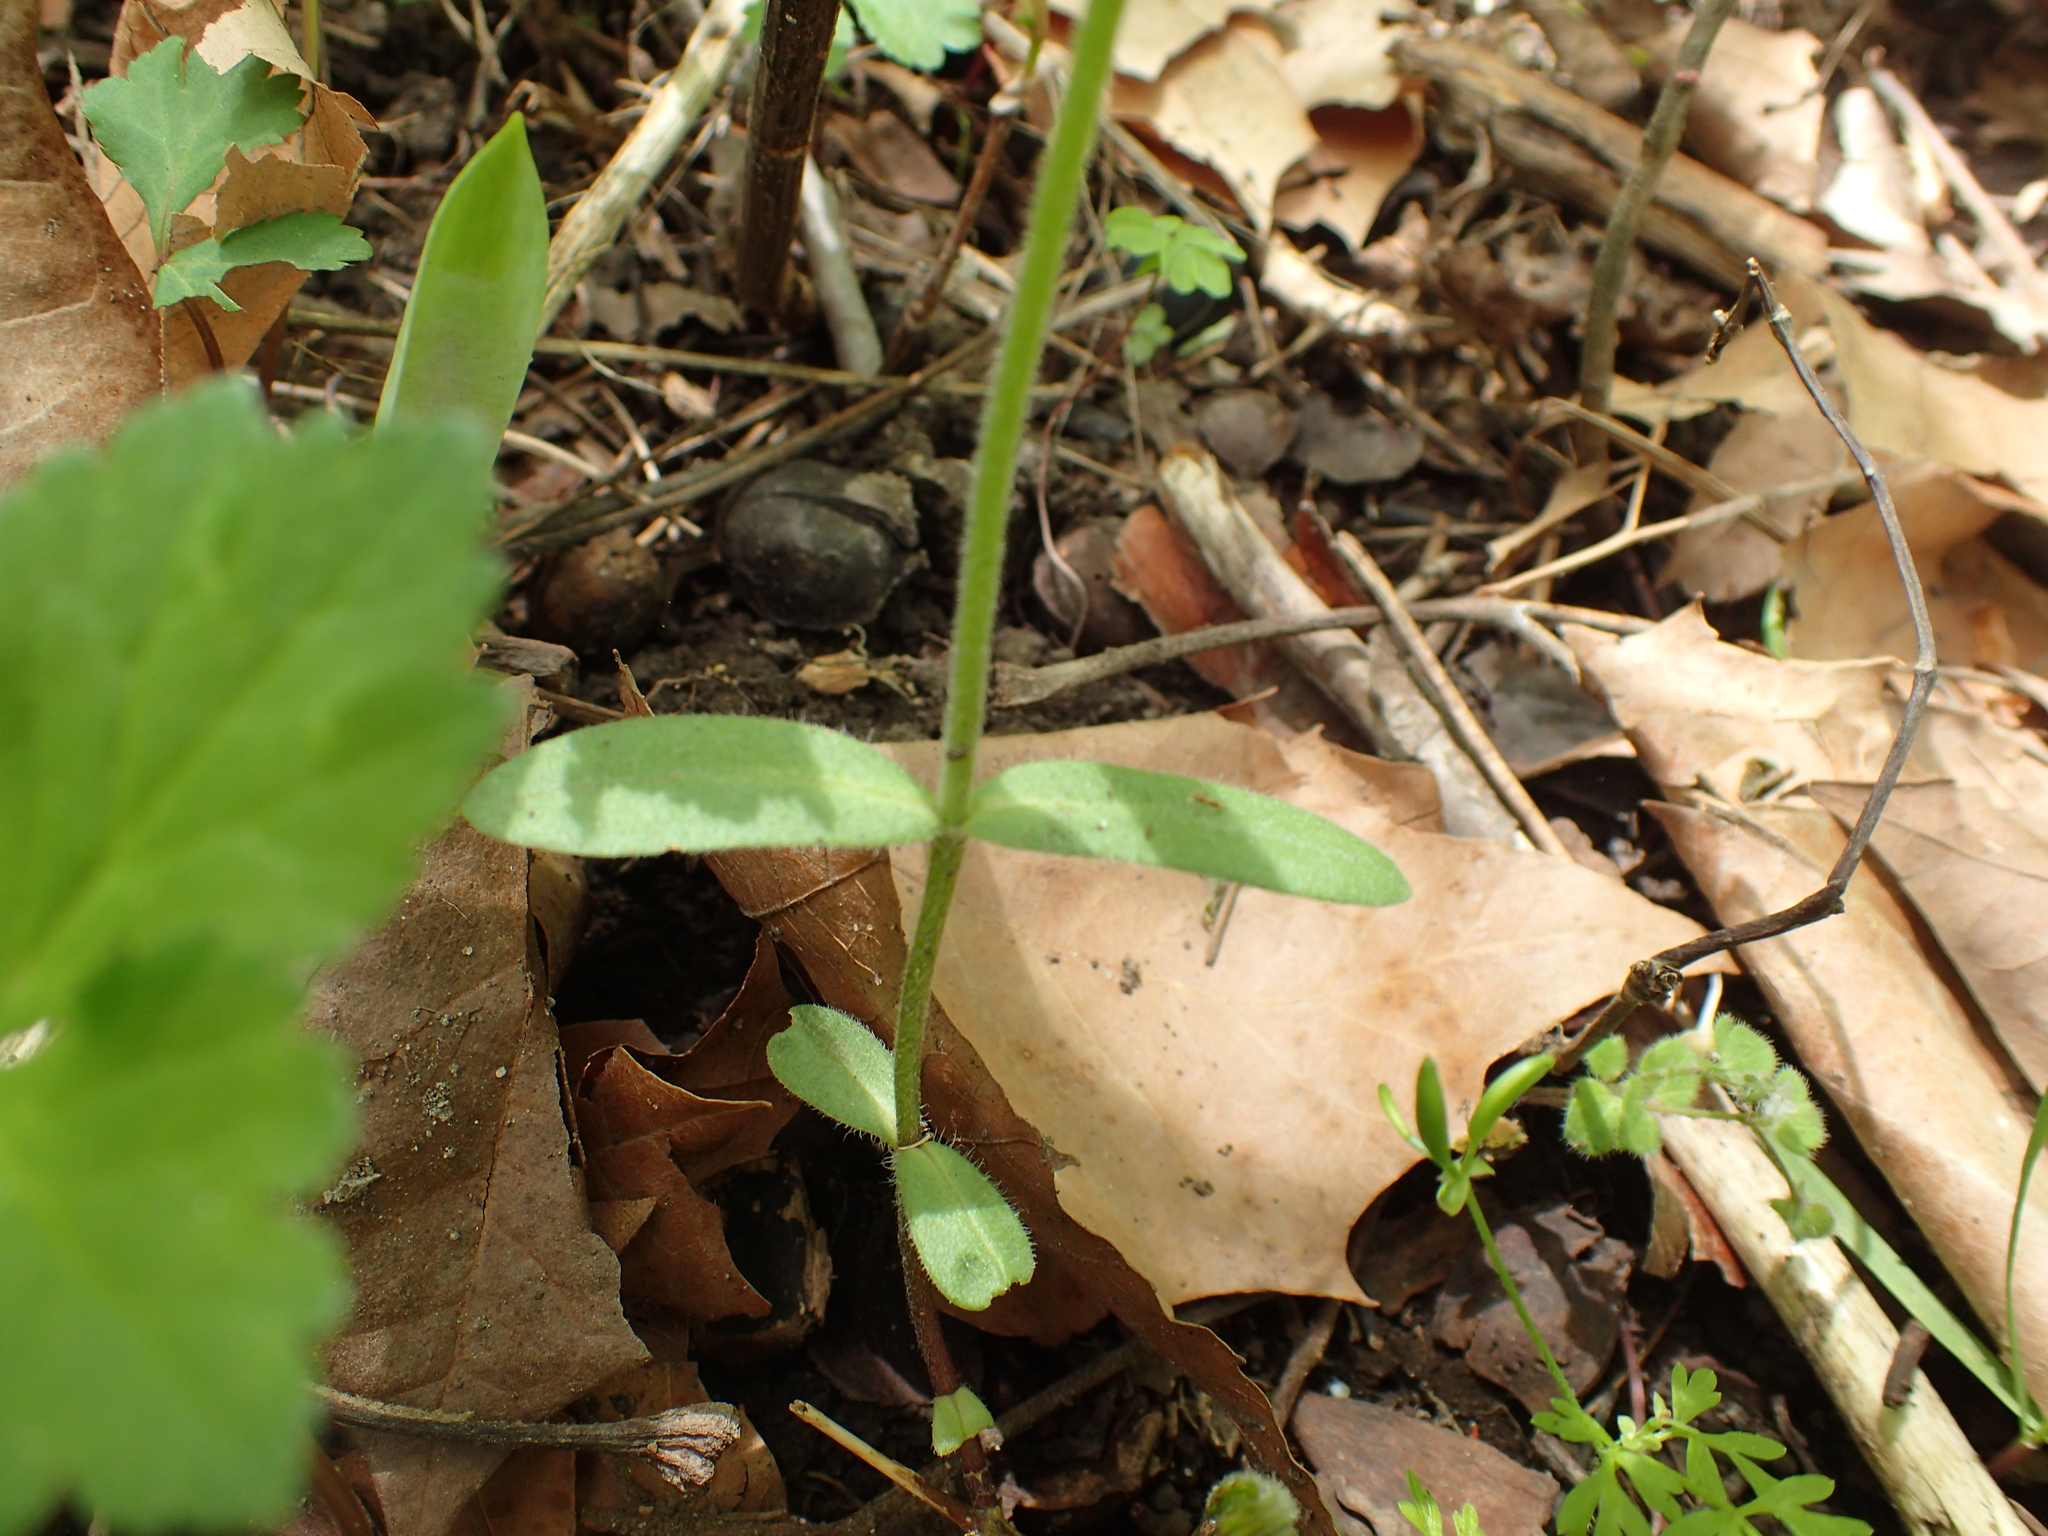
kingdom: Plantae
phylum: Tracheophyta
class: Magnoliopsida
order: Ericales
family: Polemoniaceae
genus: Phlox
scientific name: Phlox divaricata
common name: Blue phlox
